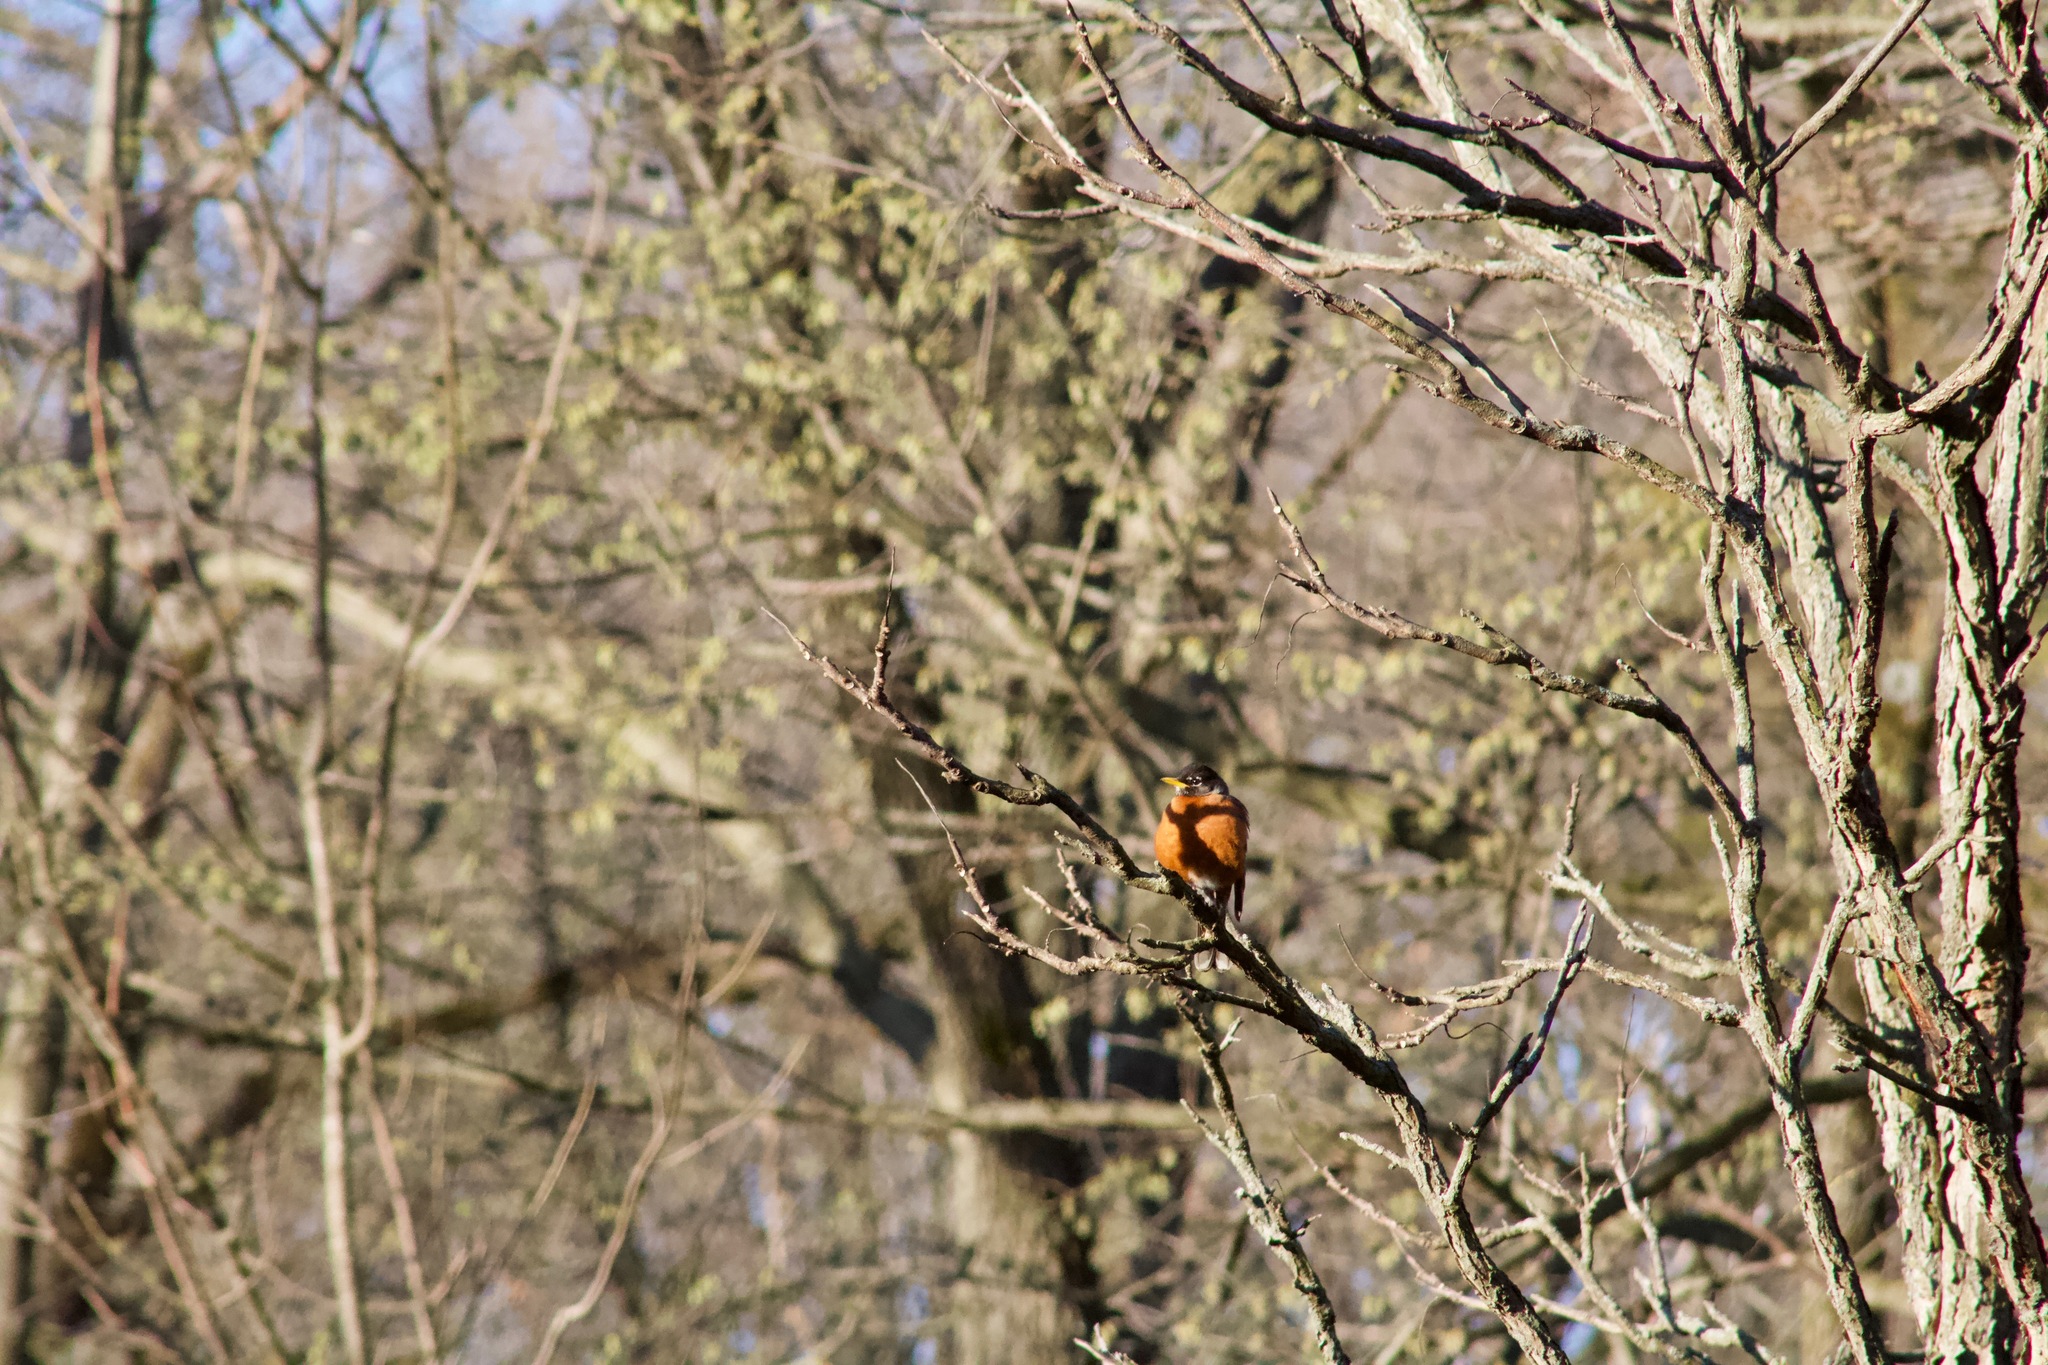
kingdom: Animalia
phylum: Chordata
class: Aves
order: Passeriformes
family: Turdidae
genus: Turdus
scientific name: Turdus migratorius
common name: American robin
